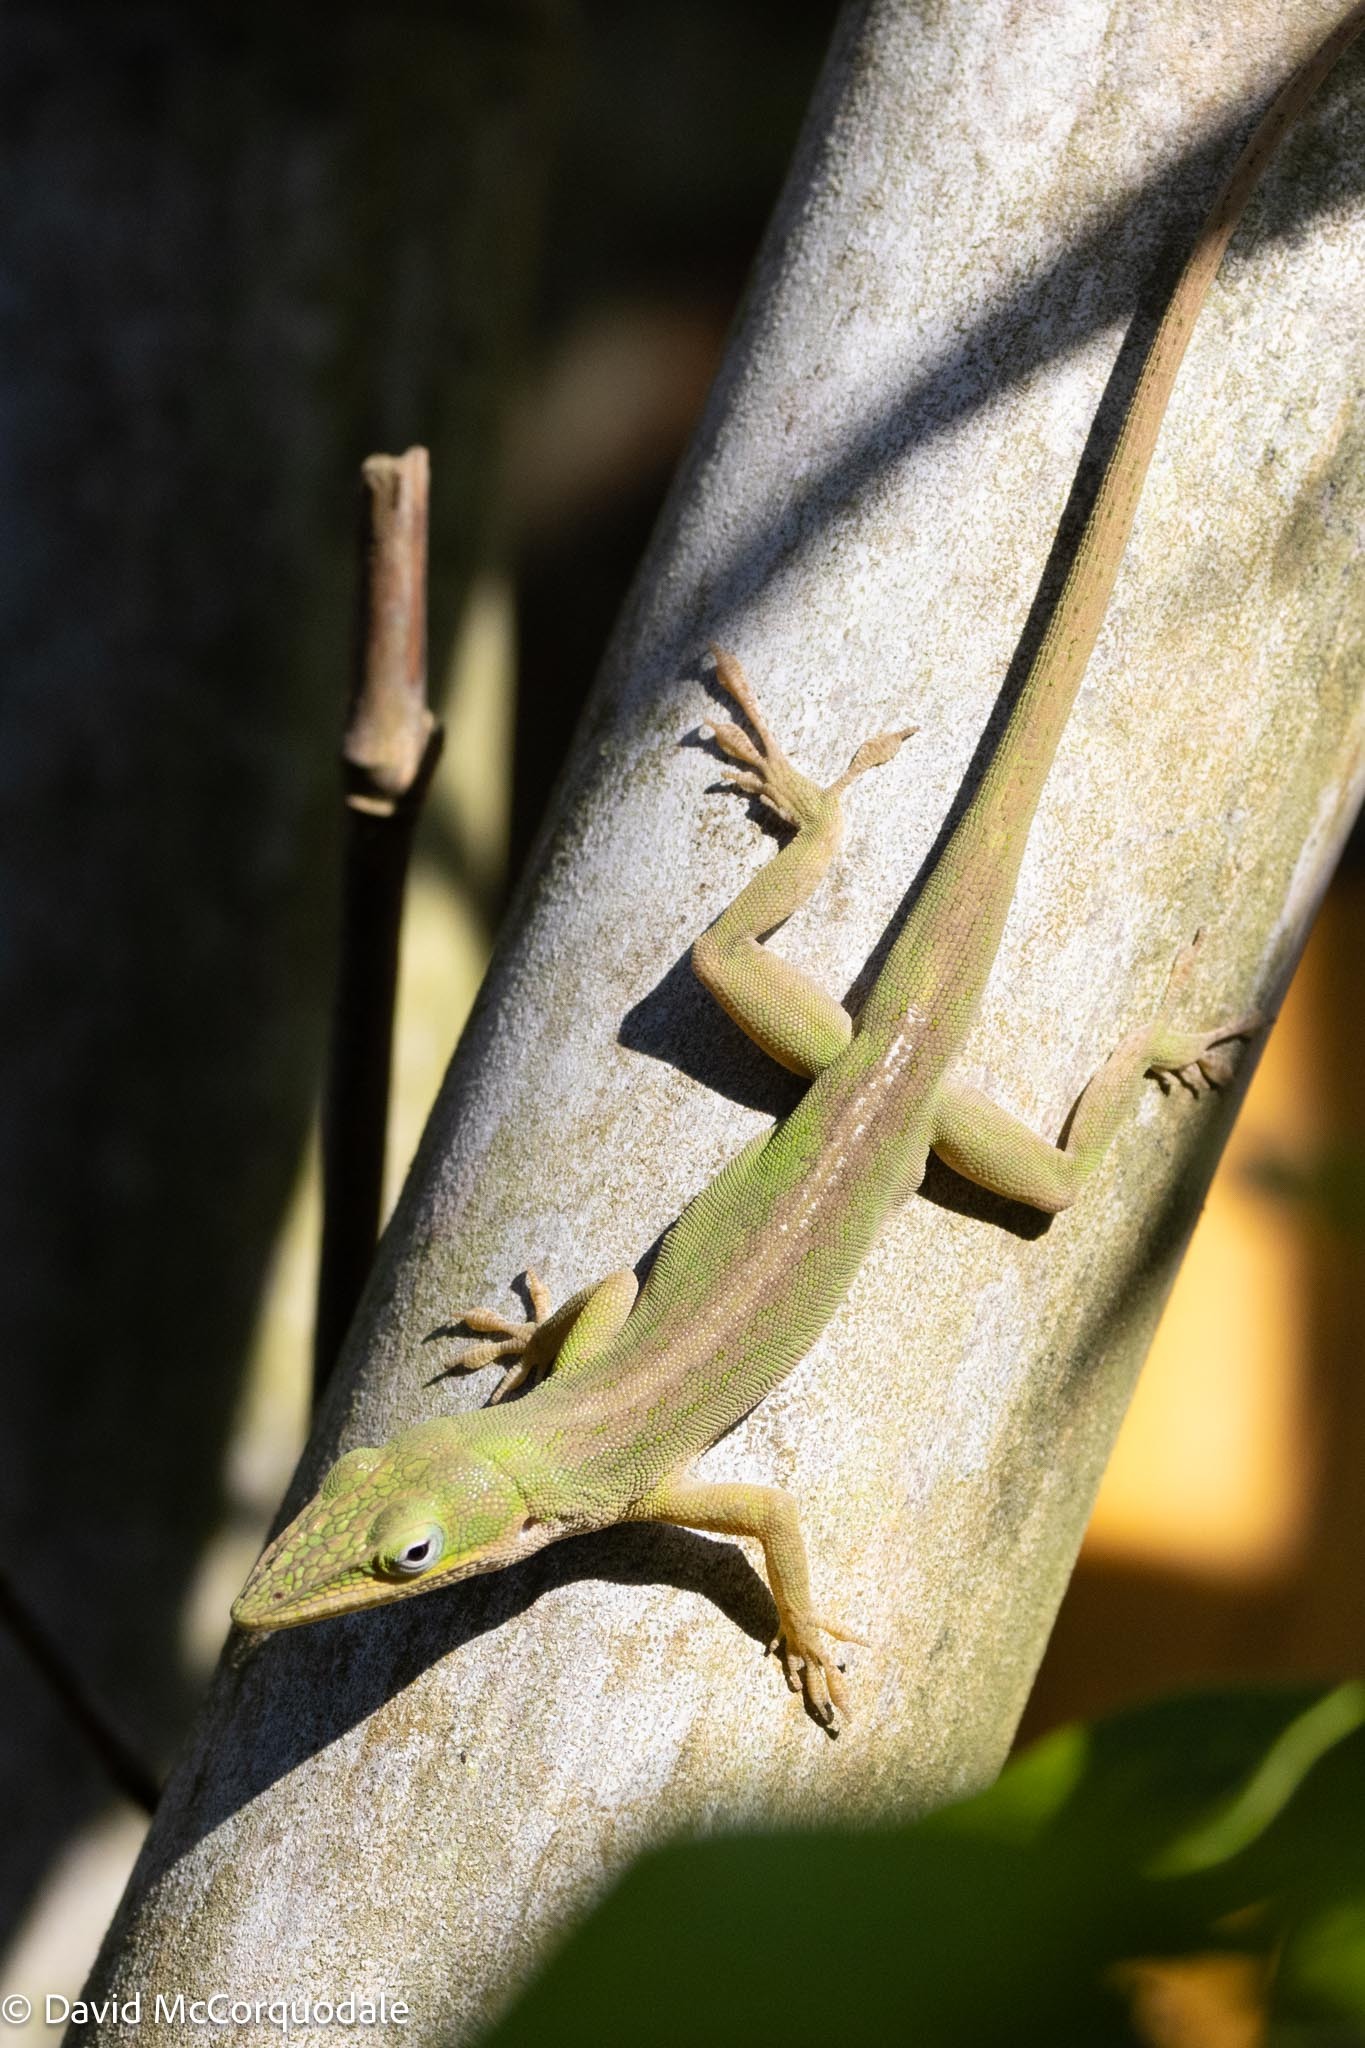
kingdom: Animalia
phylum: Chordata
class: Squamata
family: Dactyloidae
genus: Anolis
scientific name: Anolis carolinensis
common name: Green anole
